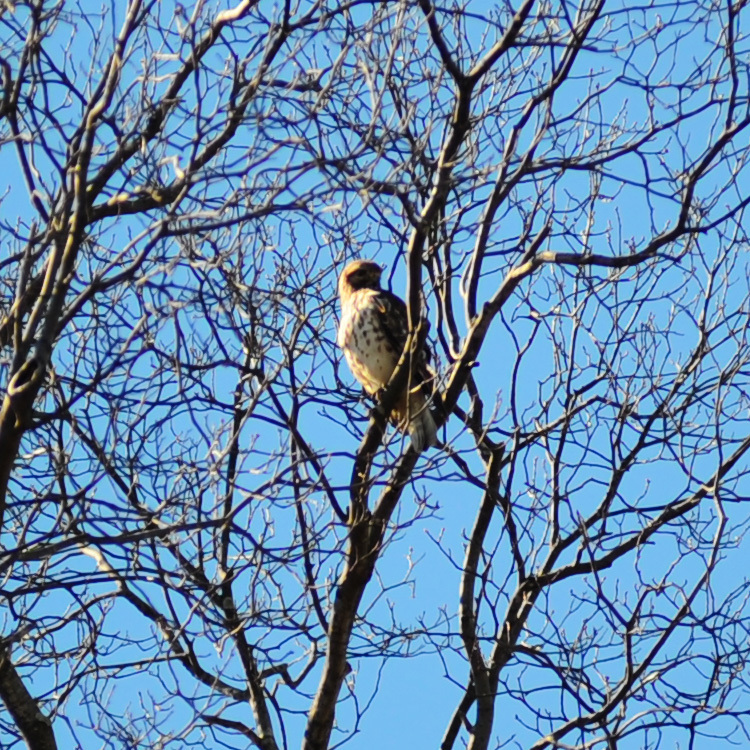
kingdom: Animalia
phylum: Chordata
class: Aves
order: Accipitriformes
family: Accipitridae
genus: Buteo
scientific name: Buteo lineatus
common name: Red-shouldered hawk
